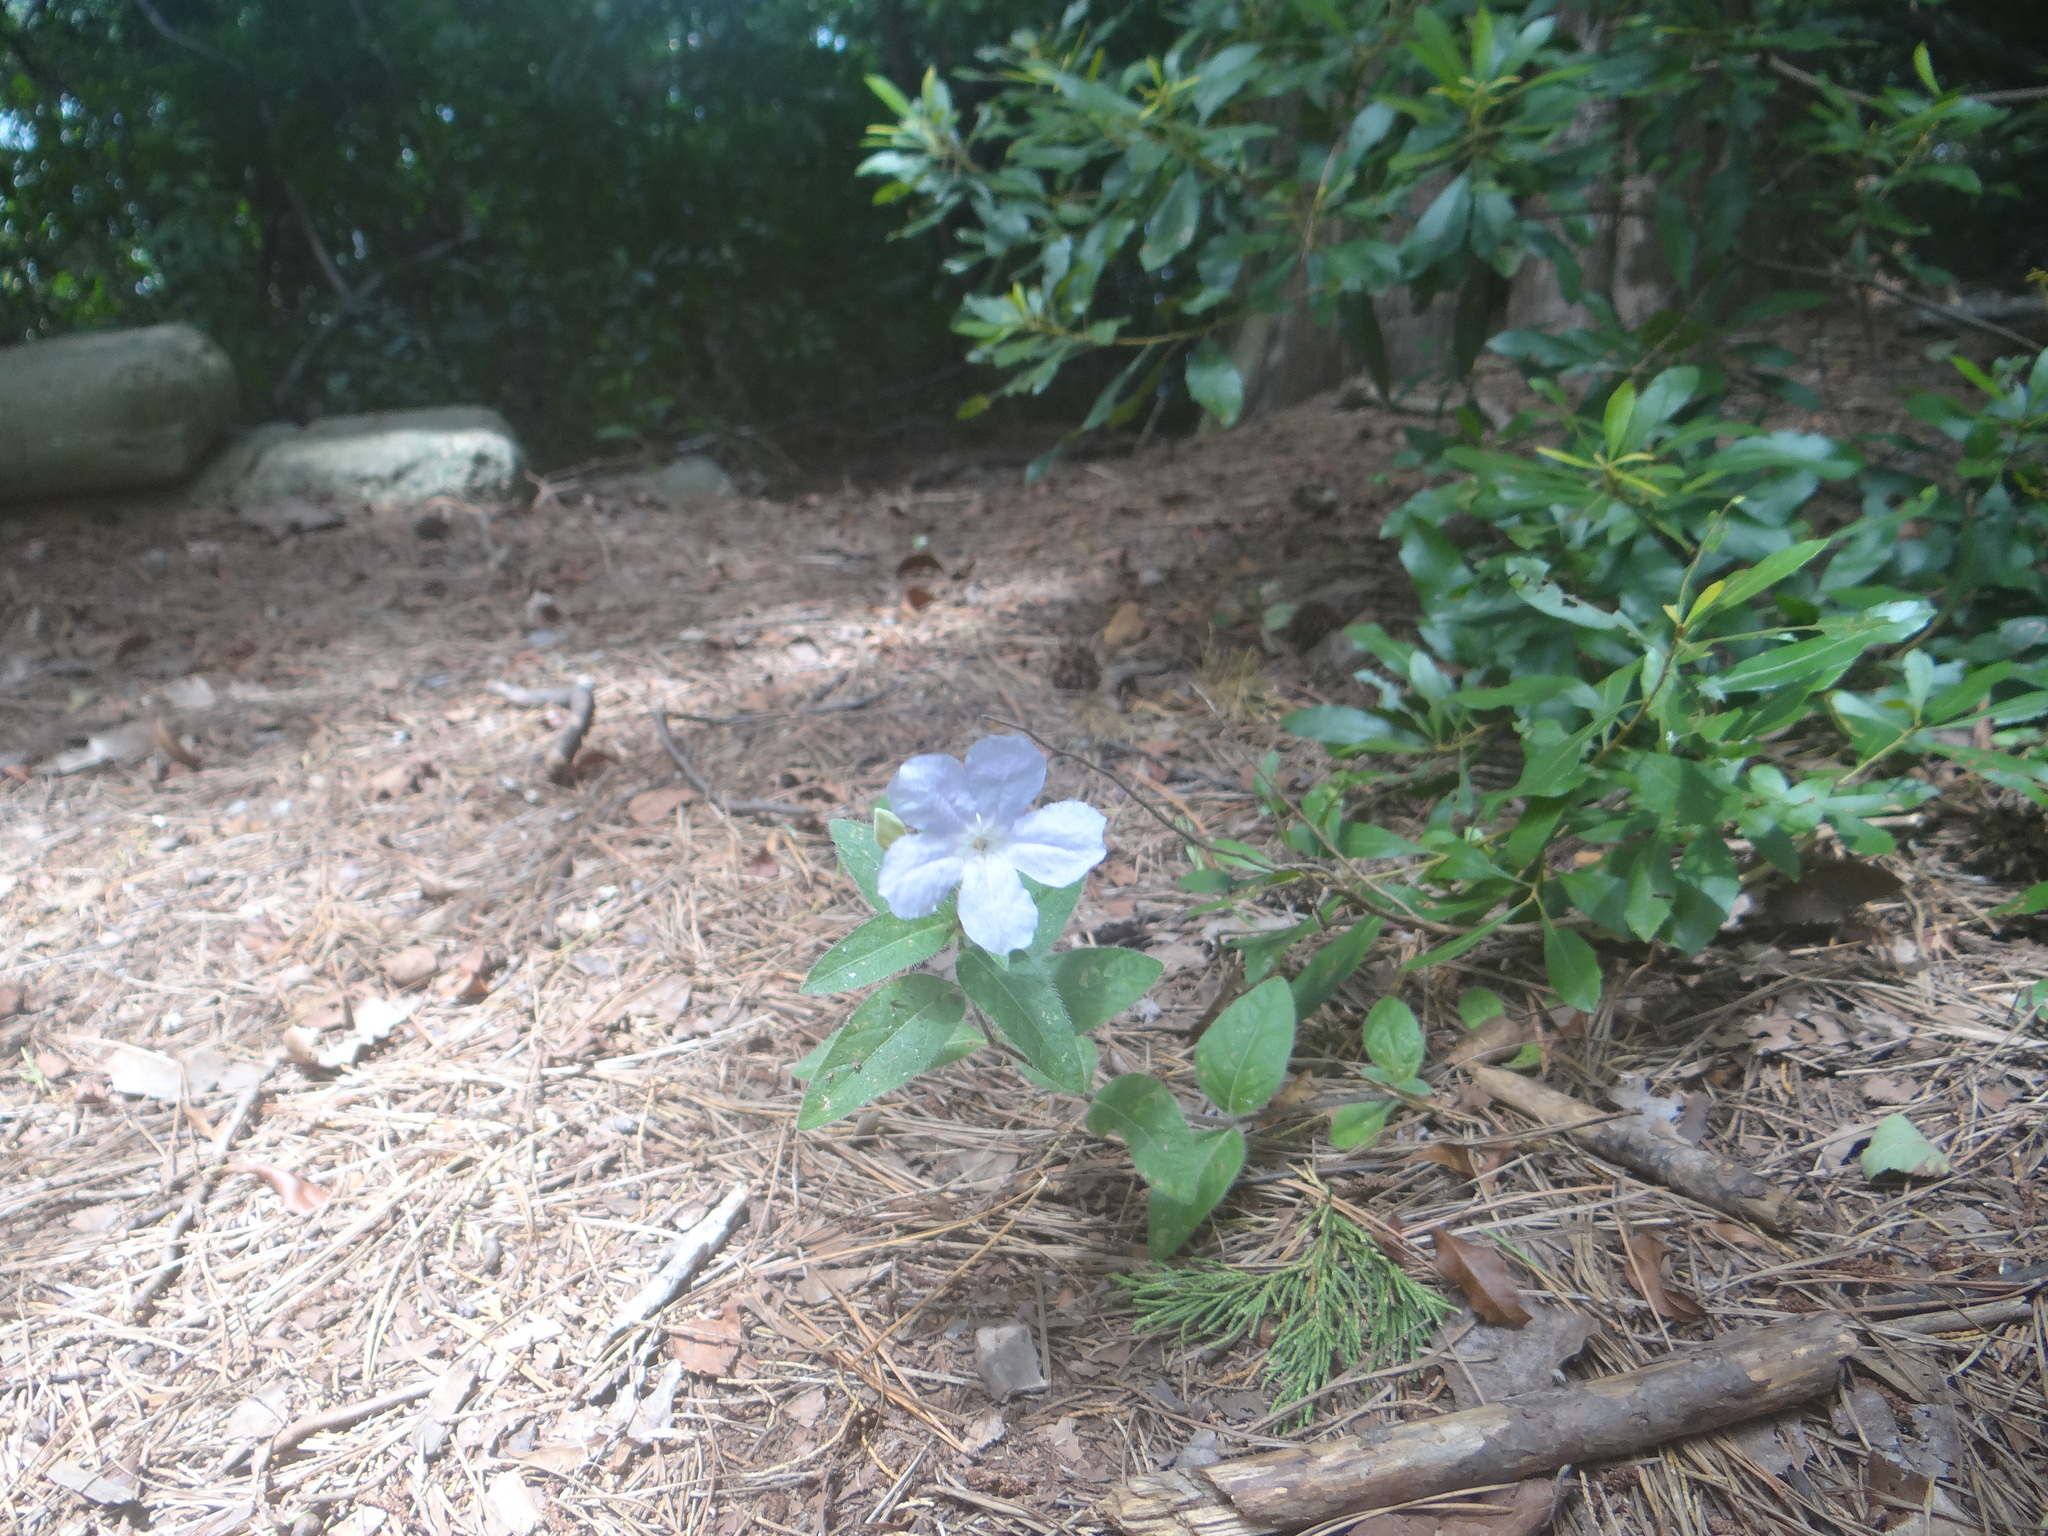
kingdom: Plantae
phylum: Tracheophyta
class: Magnoliopsida
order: Lamiales
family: Acanthaceae
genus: Ruellia
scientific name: Ruellia humilis
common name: Fringe-leaf ruellia
